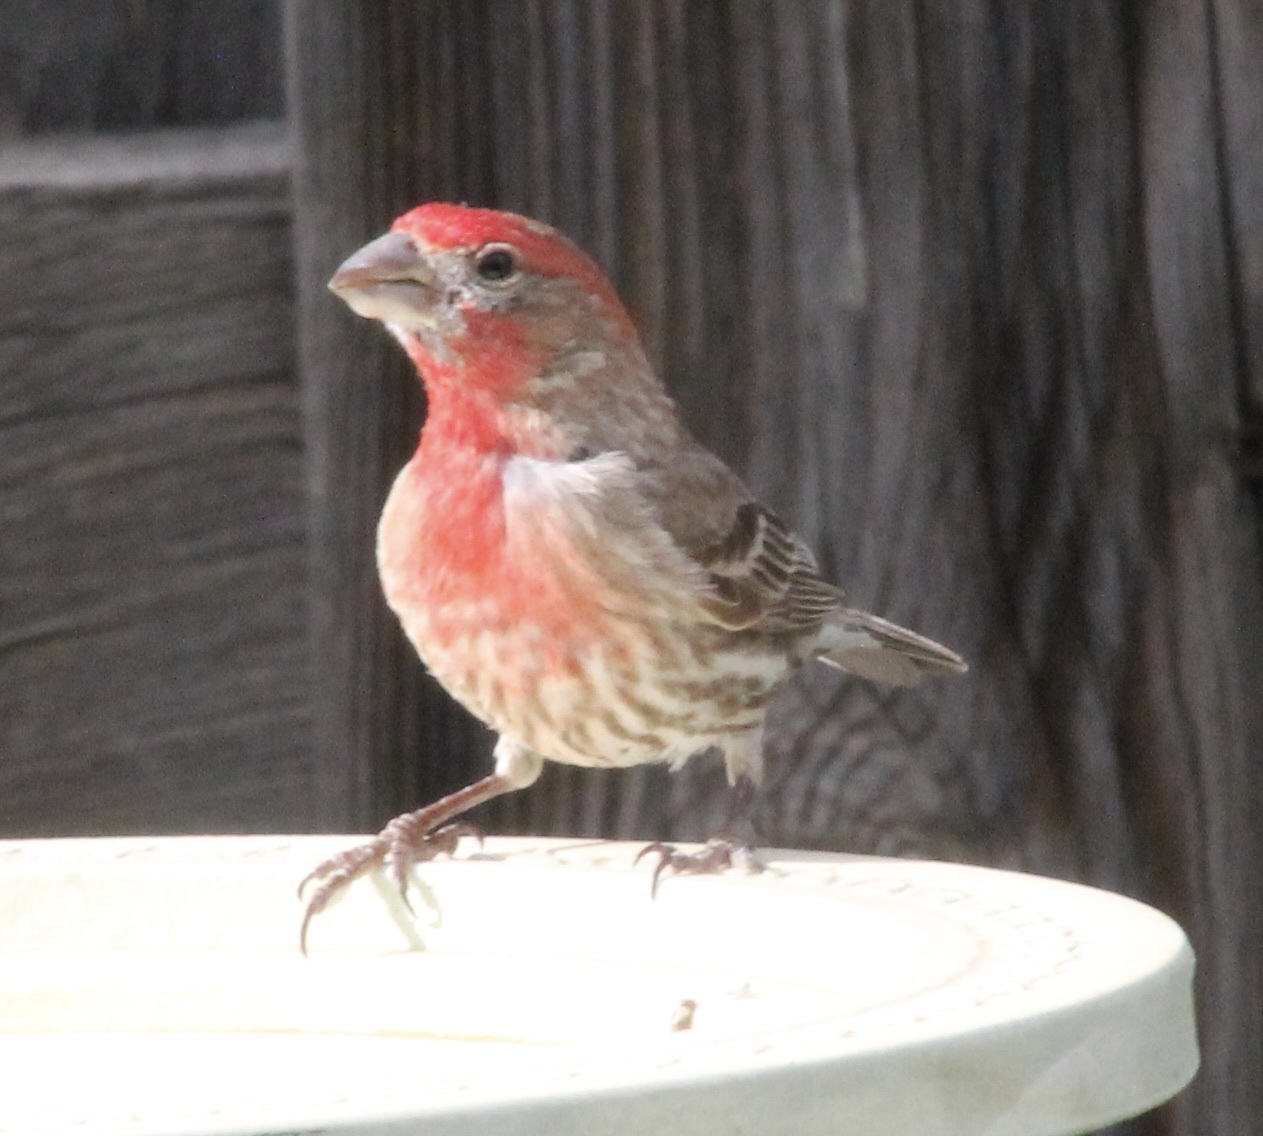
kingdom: Animalia
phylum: Chordata
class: Aves
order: Passeriformes
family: Fringillidae
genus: Haemorhous
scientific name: Haemorhous mexicanus
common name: House finch
